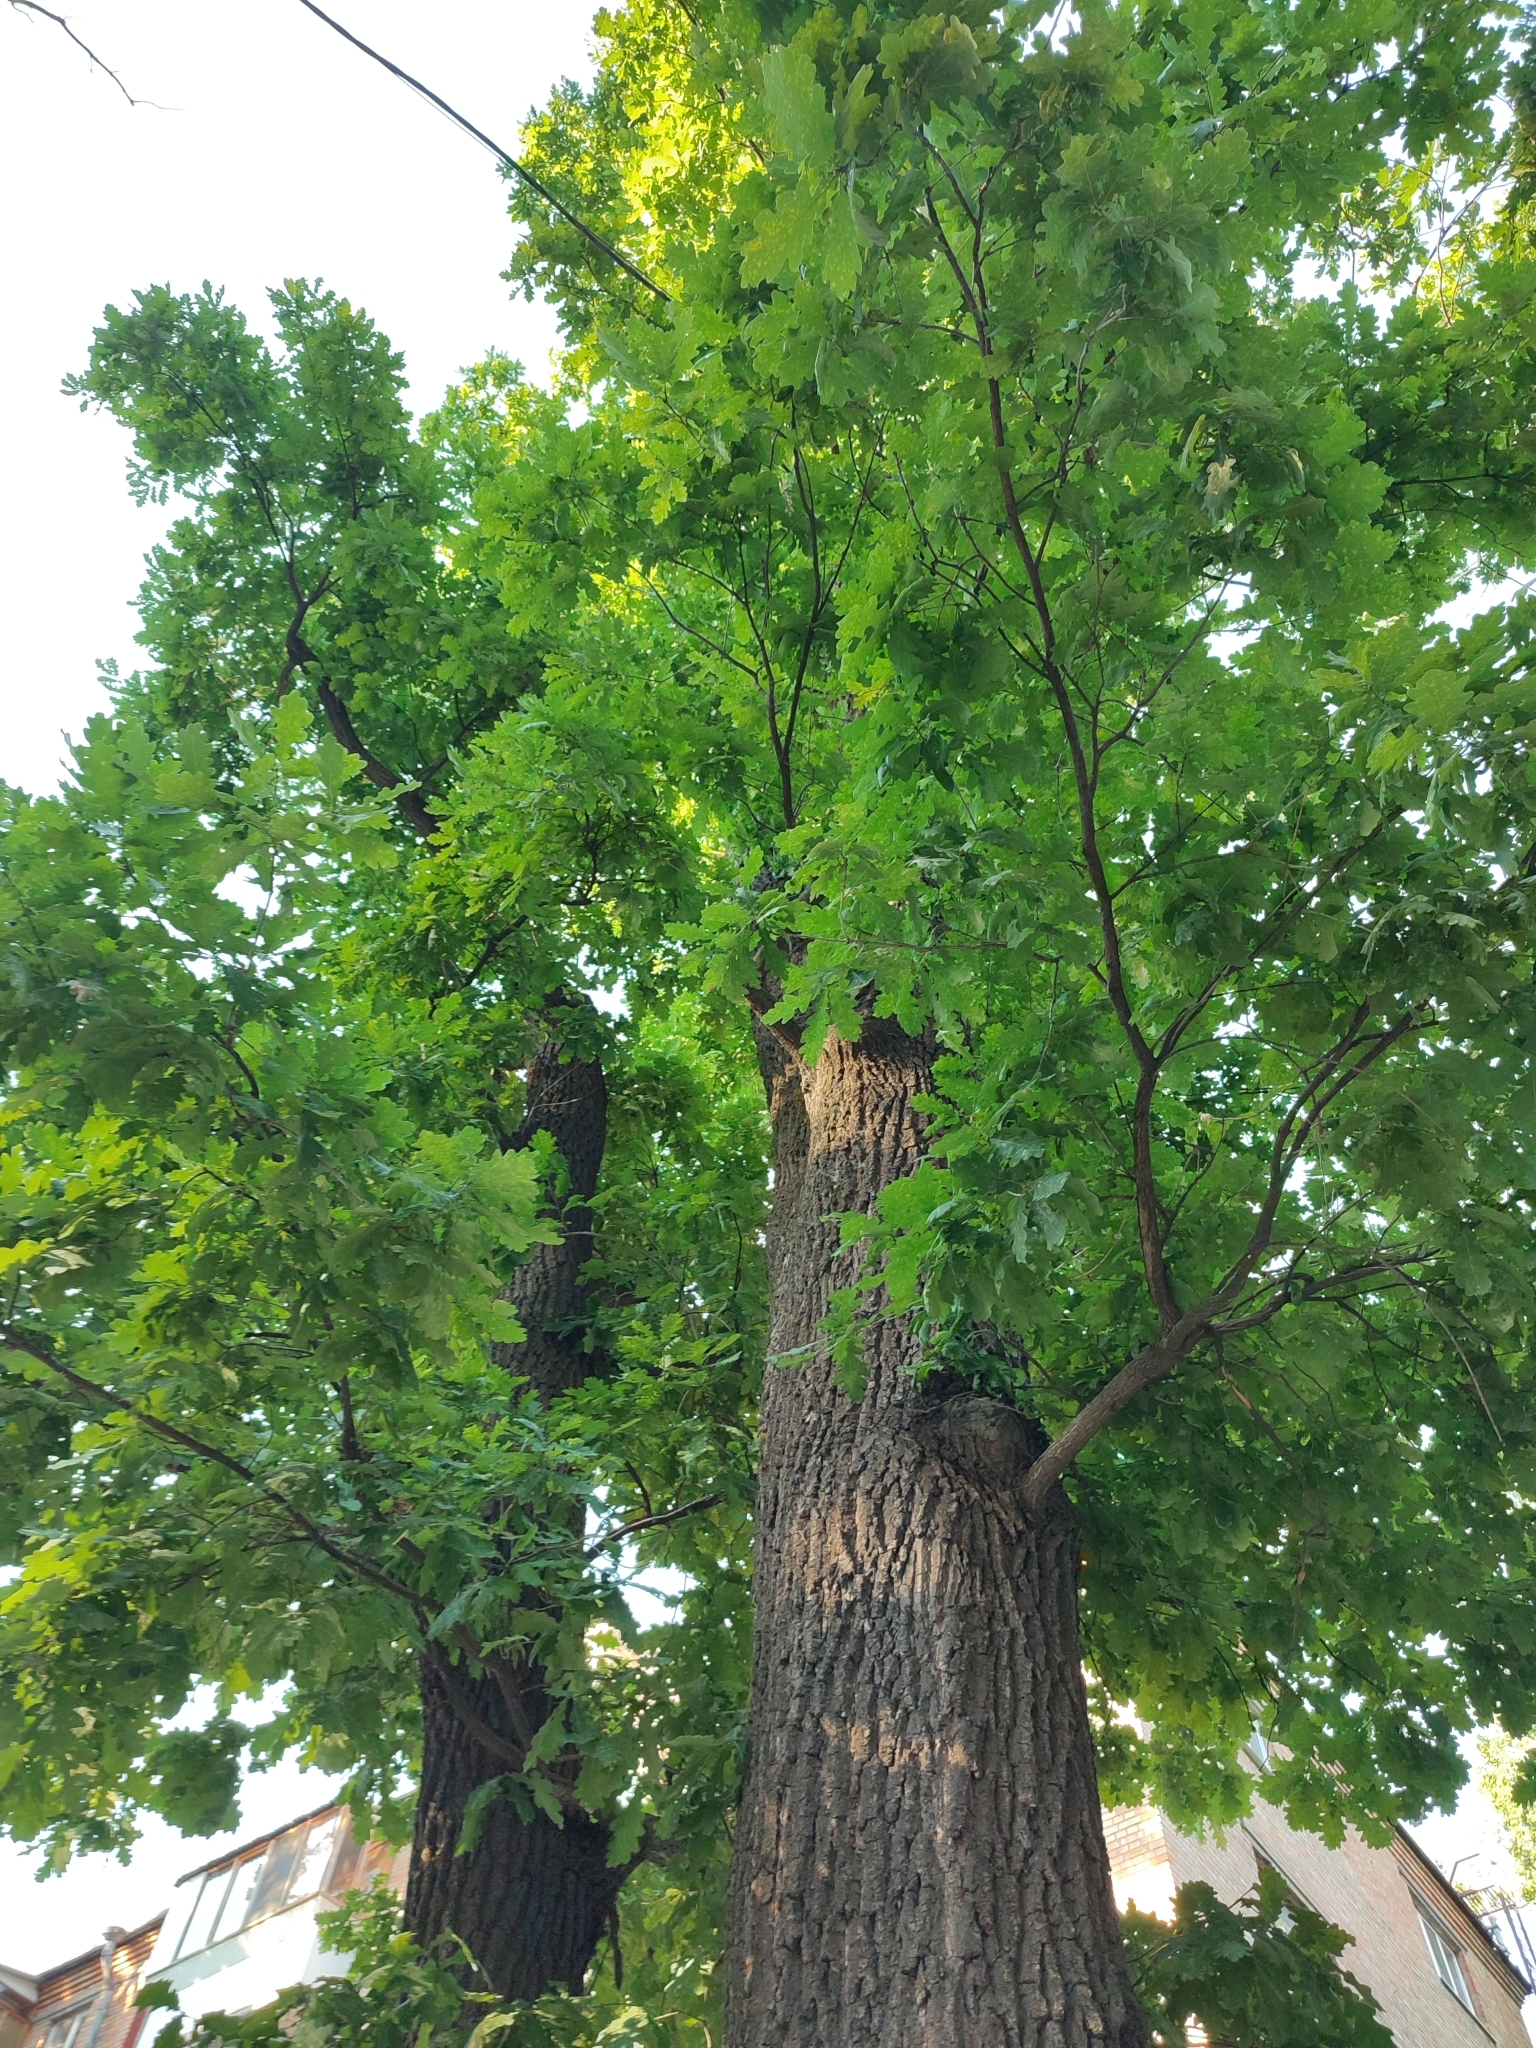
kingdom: Plantae
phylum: Tracheophyta
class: Magnoliopsida
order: Fagales
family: Fagaceae
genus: Quercus
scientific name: Quercus robur
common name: Pedunculate oak
